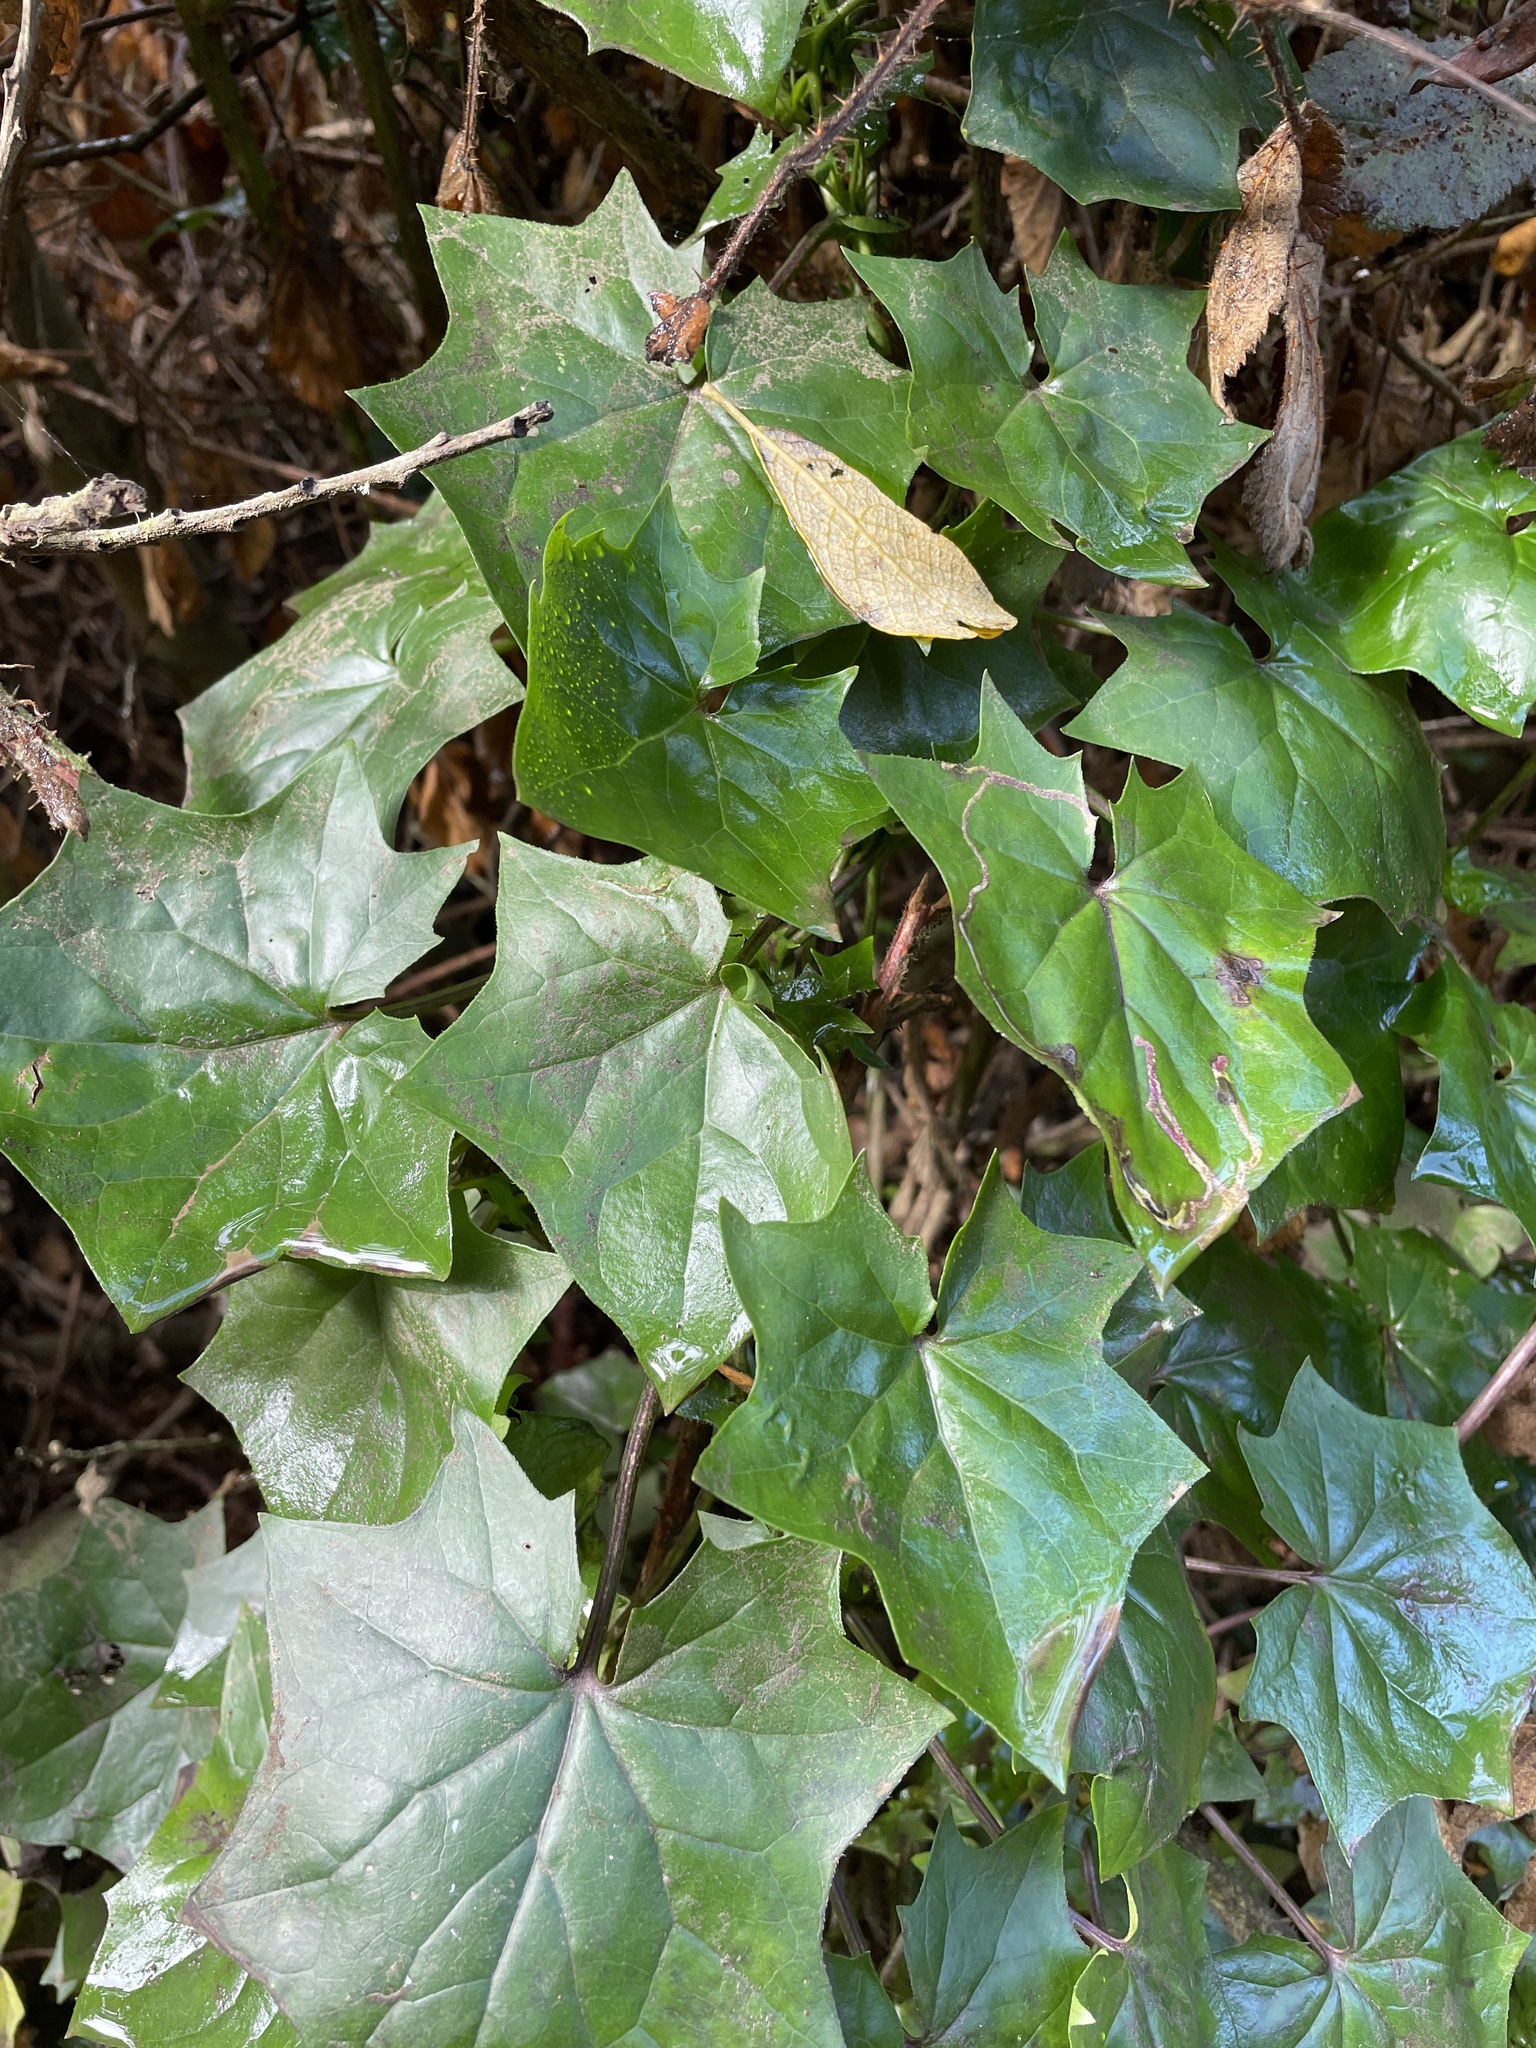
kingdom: Plantae
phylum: Tracheophyta
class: Magnoliopsida
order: Asterales
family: Asteraceae
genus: Delairea
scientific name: Delairea odorata
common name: Cape-ivy
